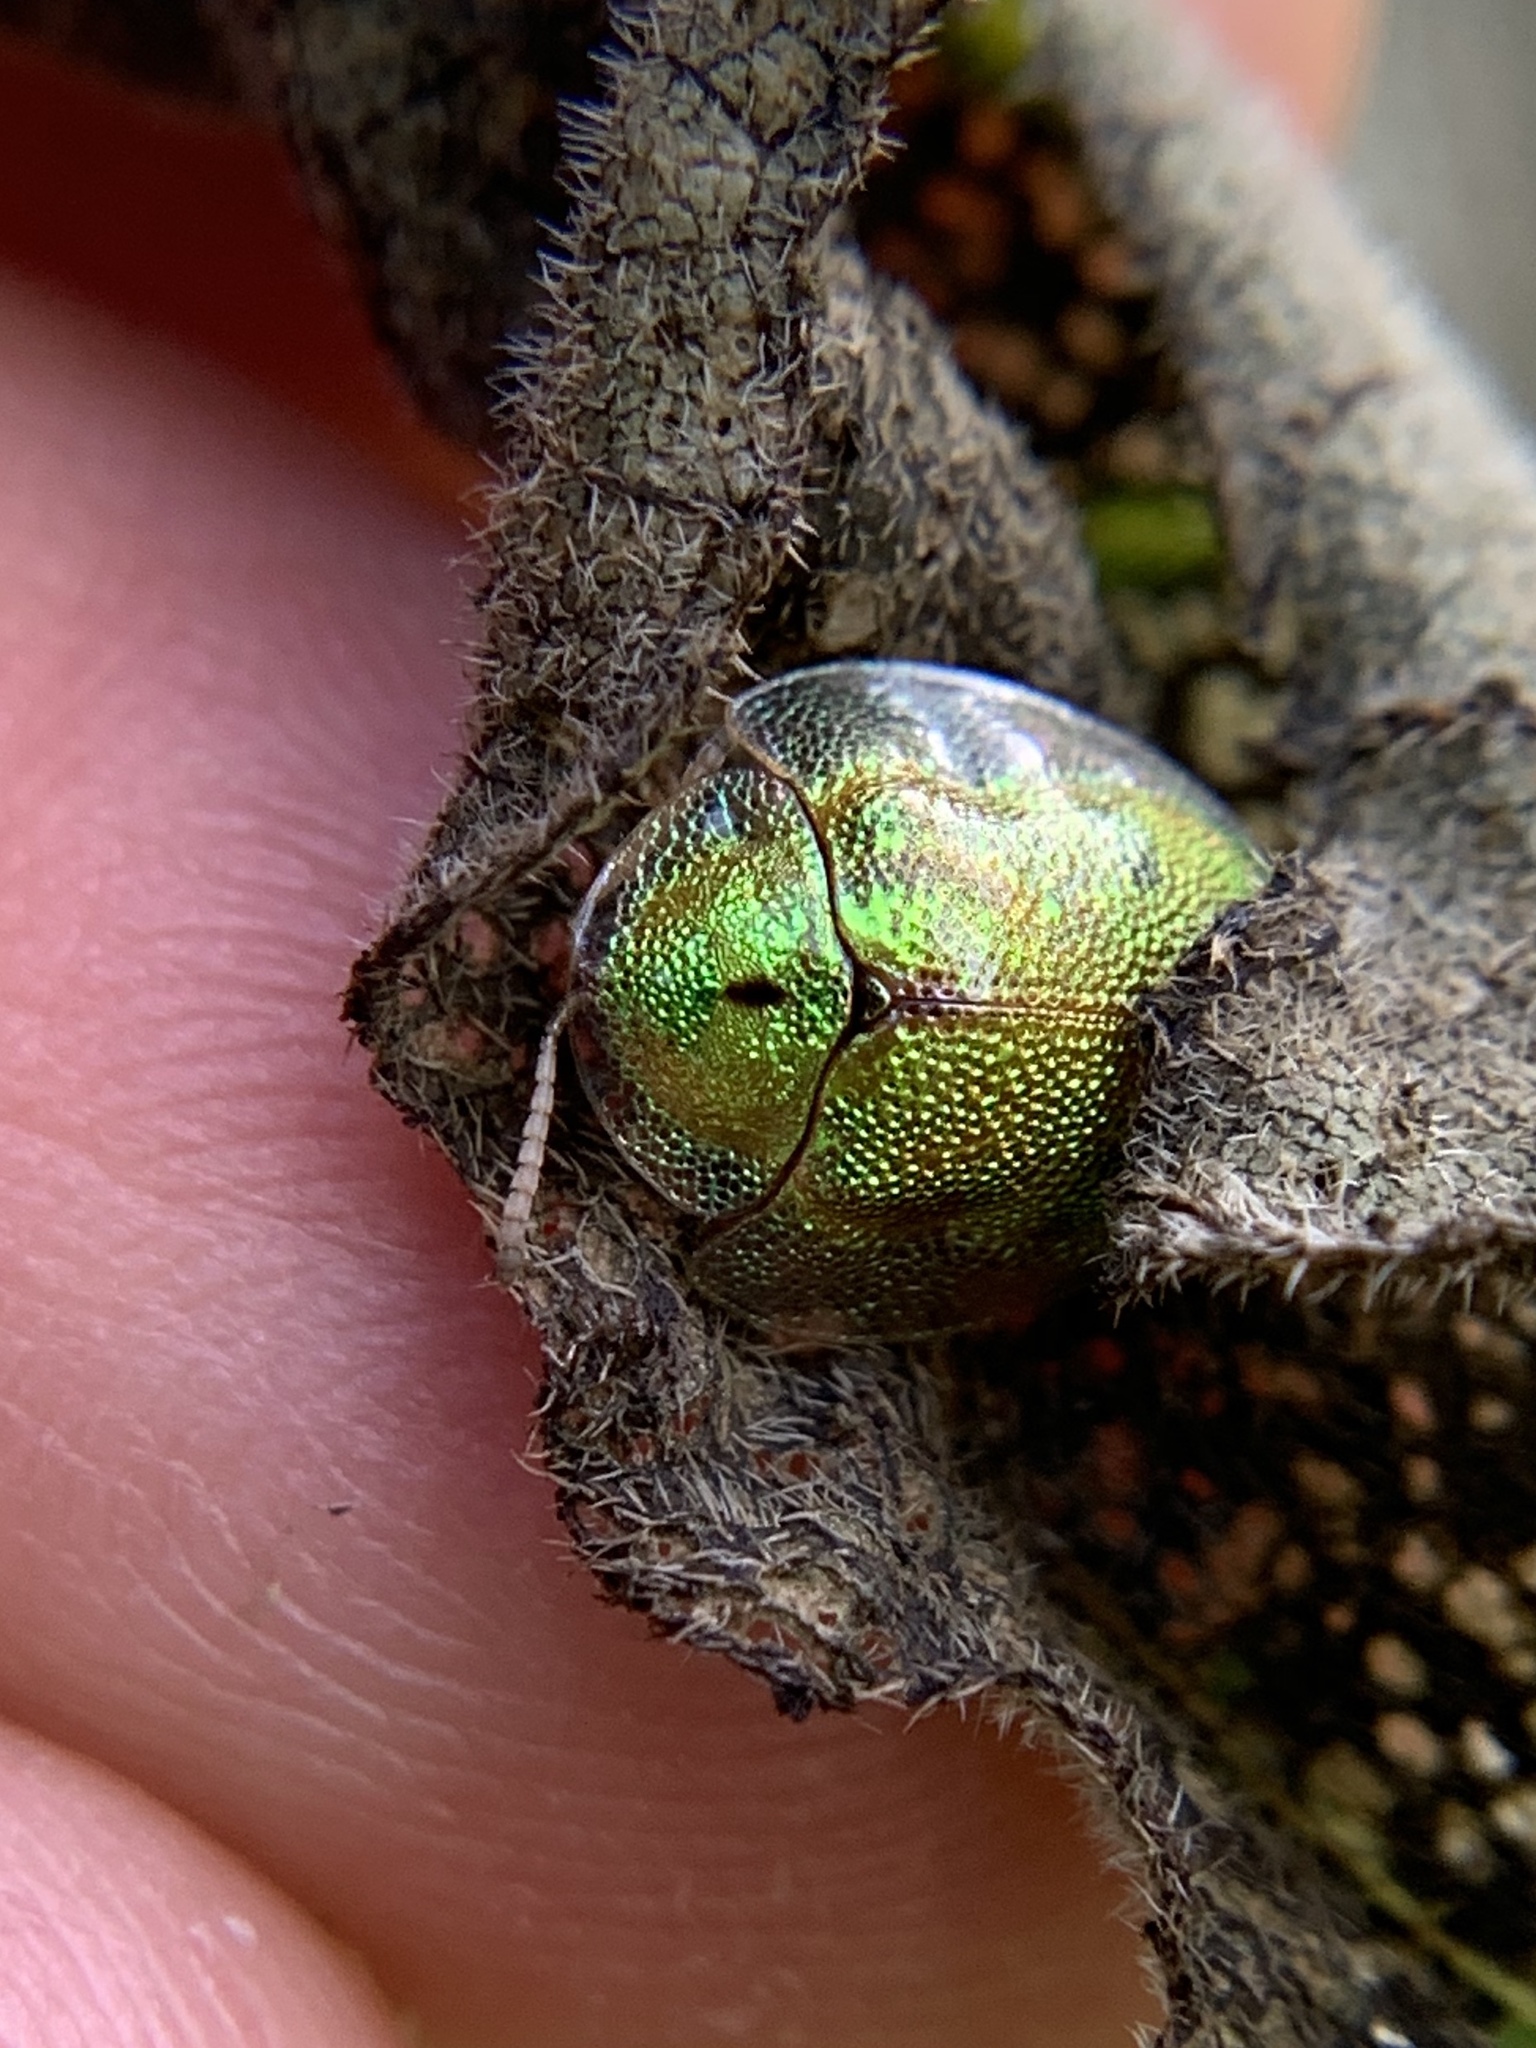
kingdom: Animalia
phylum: Arthropoda
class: Insecta
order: Coleoptera
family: Chrysomelidae
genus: Eurypepla
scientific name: Eurypepla calochroma
